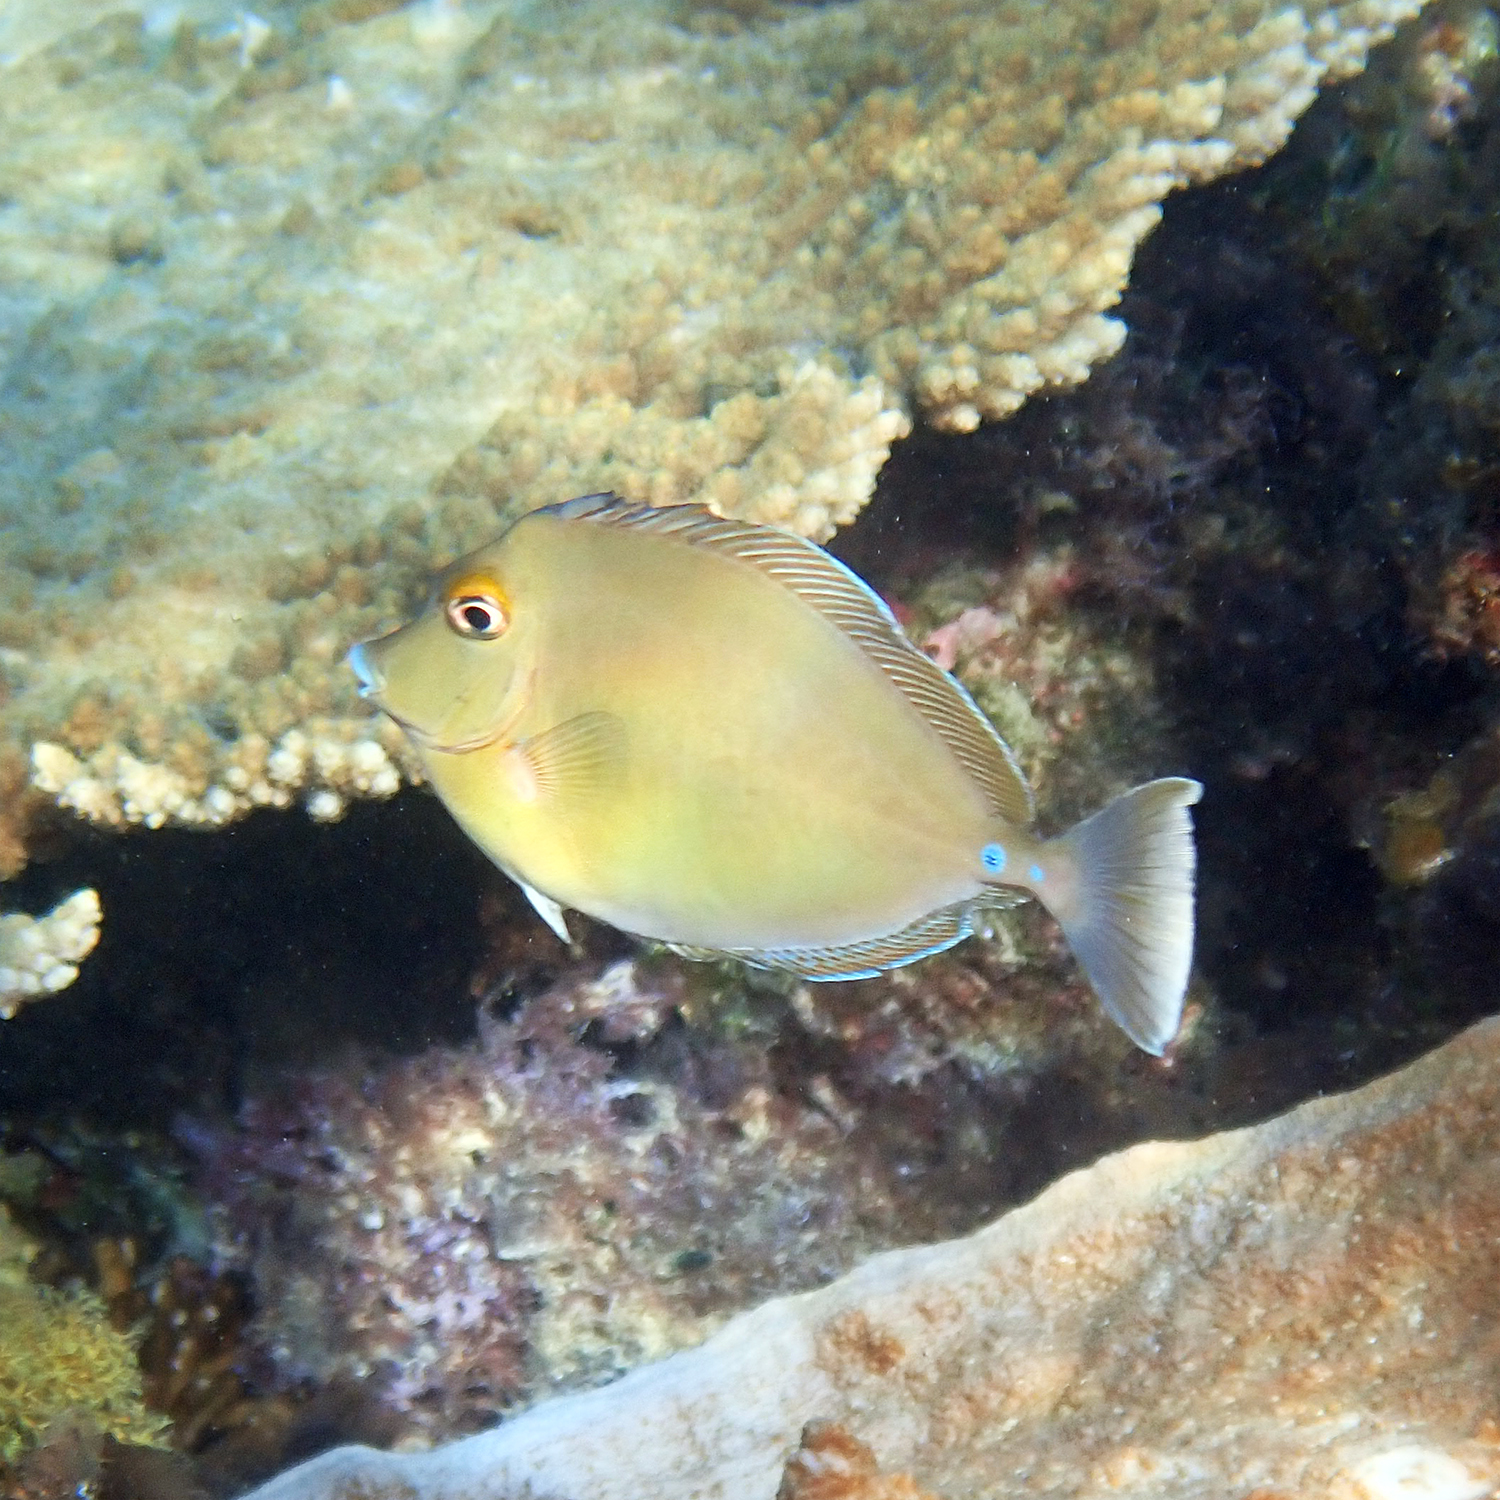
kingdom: Animalia
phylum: Chordata
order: Perciformes
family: Acanthuridae
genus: Naso
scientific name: Naso unicornis
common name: Bluespine unicornfish
